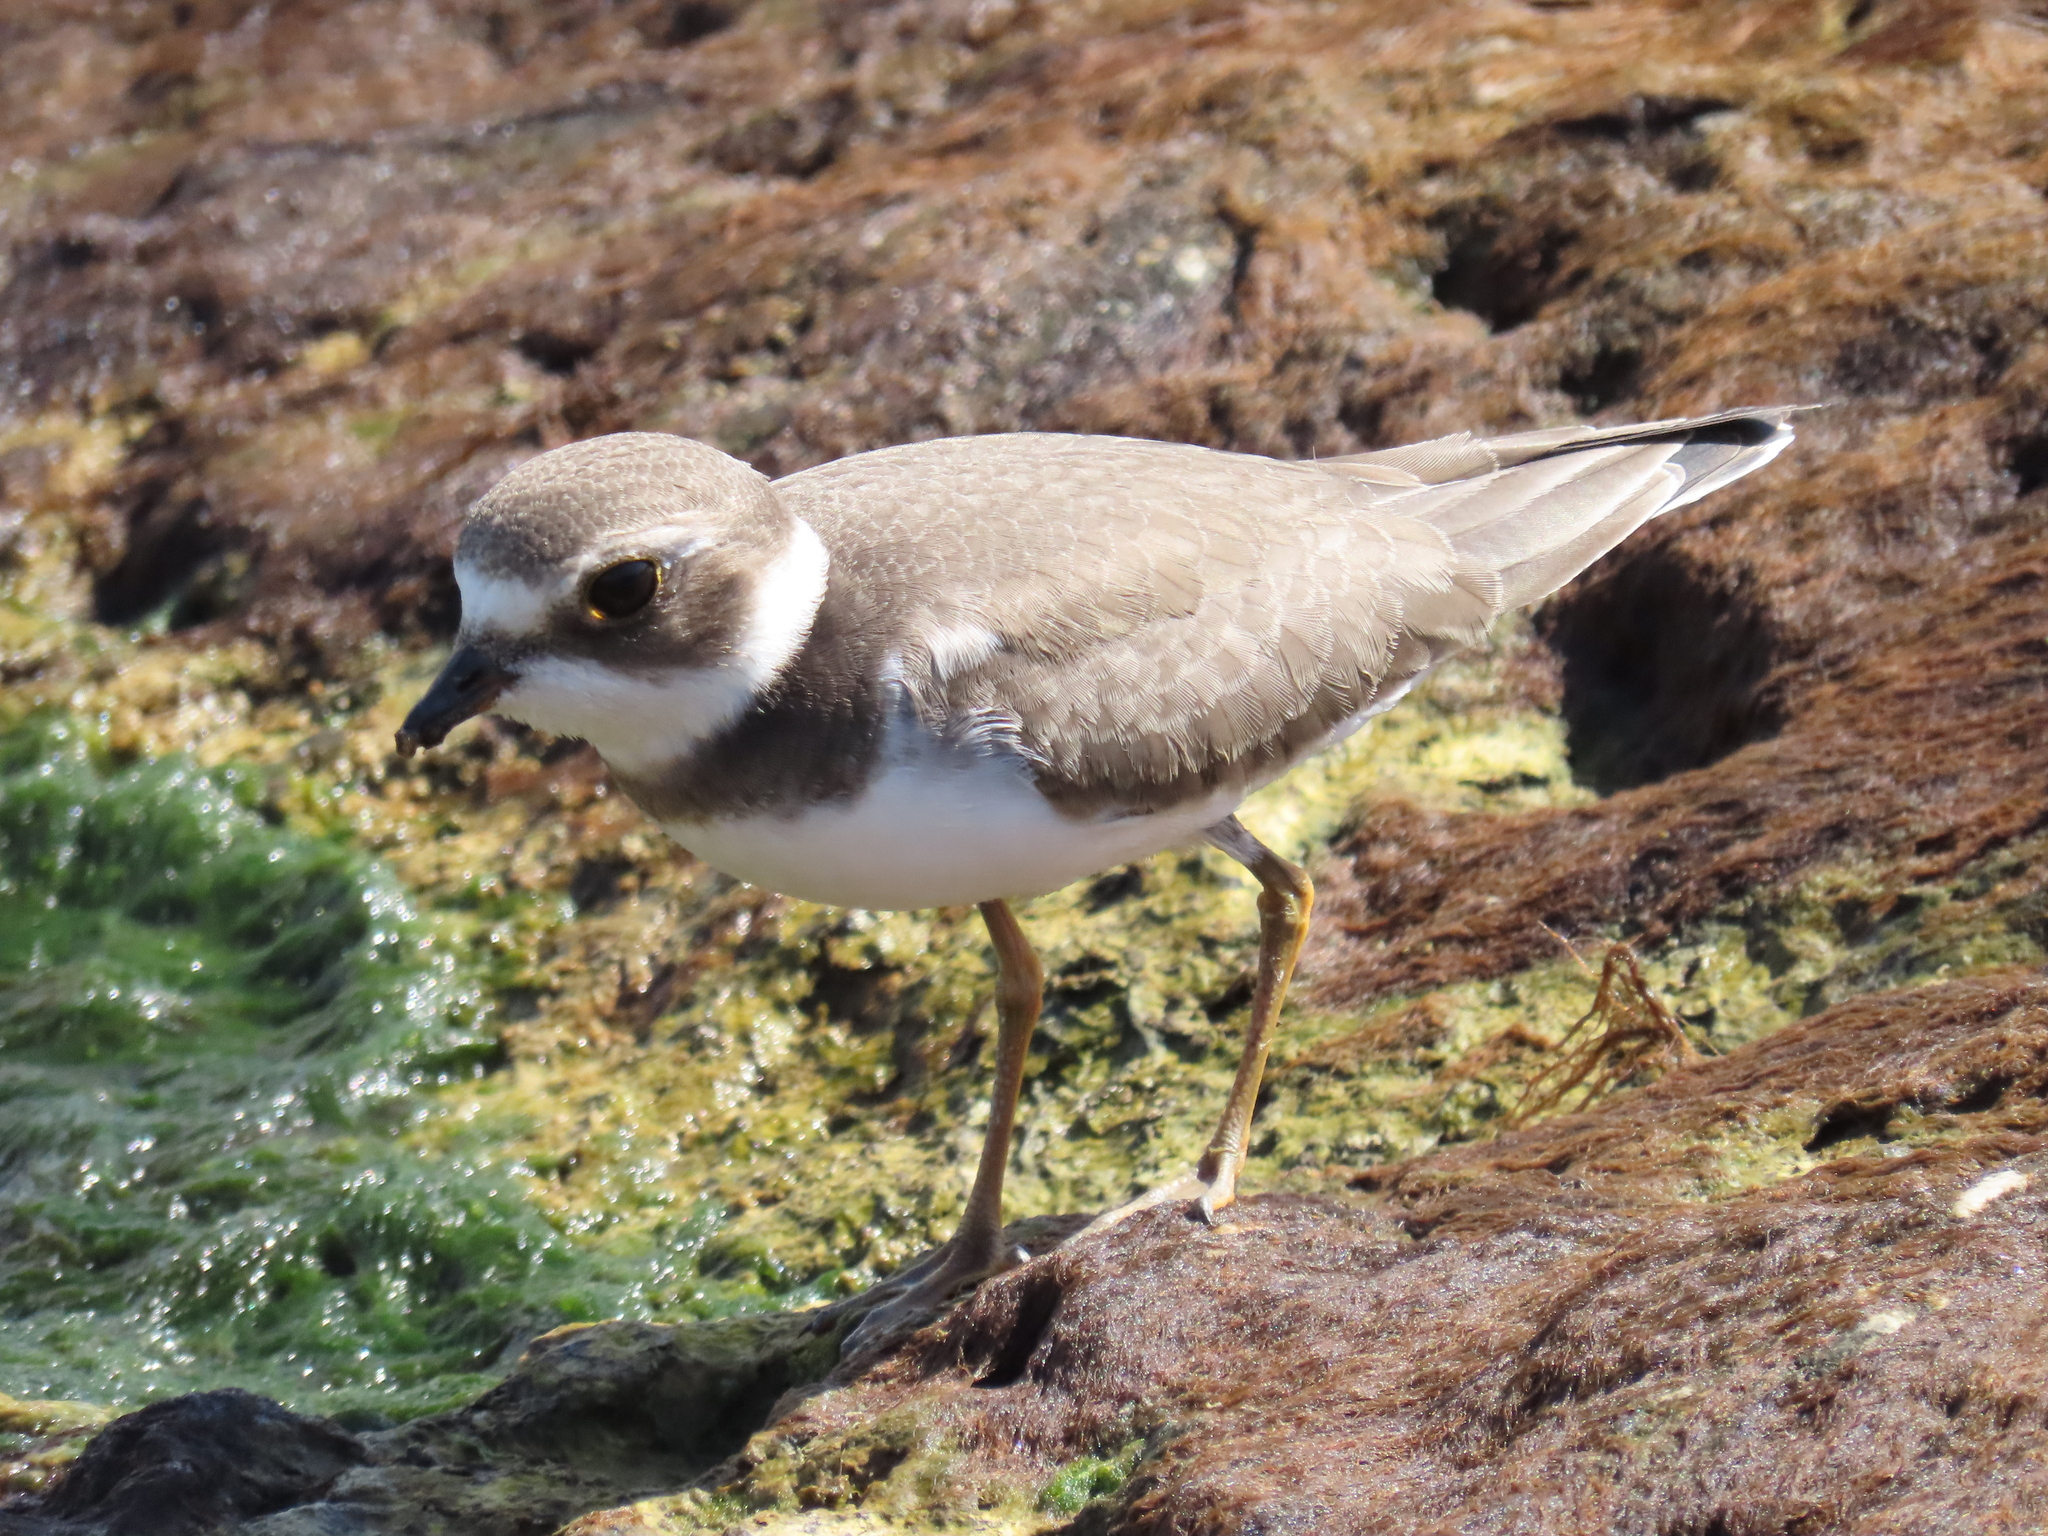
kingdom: Animalia
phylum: Chordata
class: Aves
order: Charadriiformes
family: Charadriidae
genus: Charadrius
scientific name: Charadrius semipalmatus
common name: Semipalmated plover
